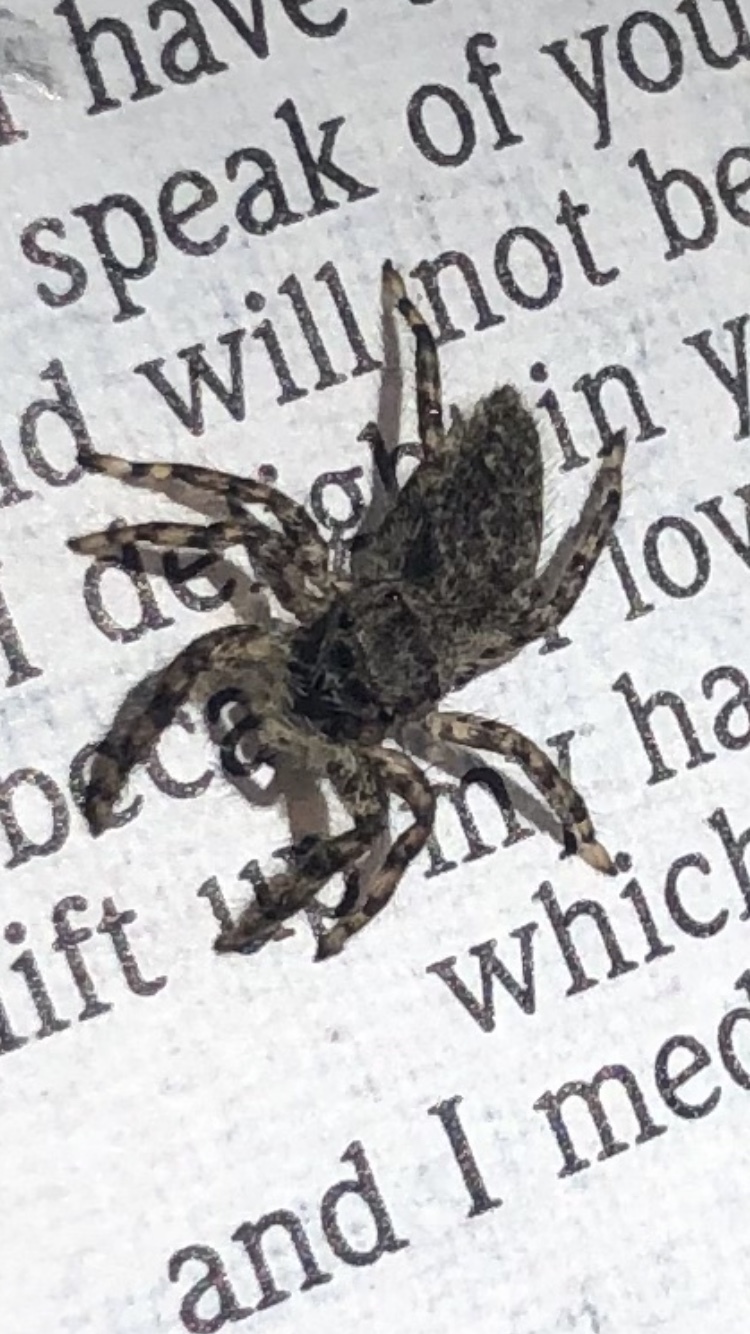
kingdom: Animalia
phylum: Arthropoda
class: Arachnida
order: Araneae
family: Salticidae
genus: Platycryptus
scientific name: Platycryptus undatus
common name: Tan jumping spider
